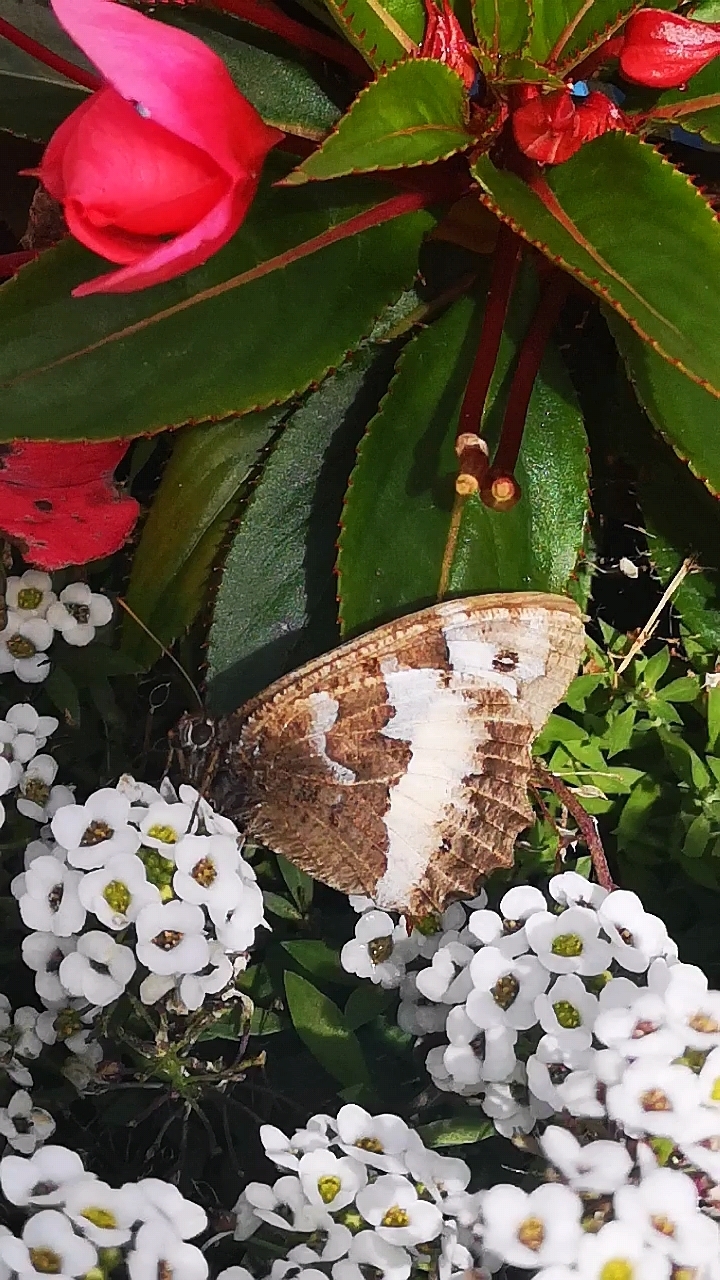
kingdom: Animalia
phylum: Arthropoda
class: Insecta
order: Lepidoptera
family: Lycaenidae
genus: Loweia
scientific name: Loweia tityrus
